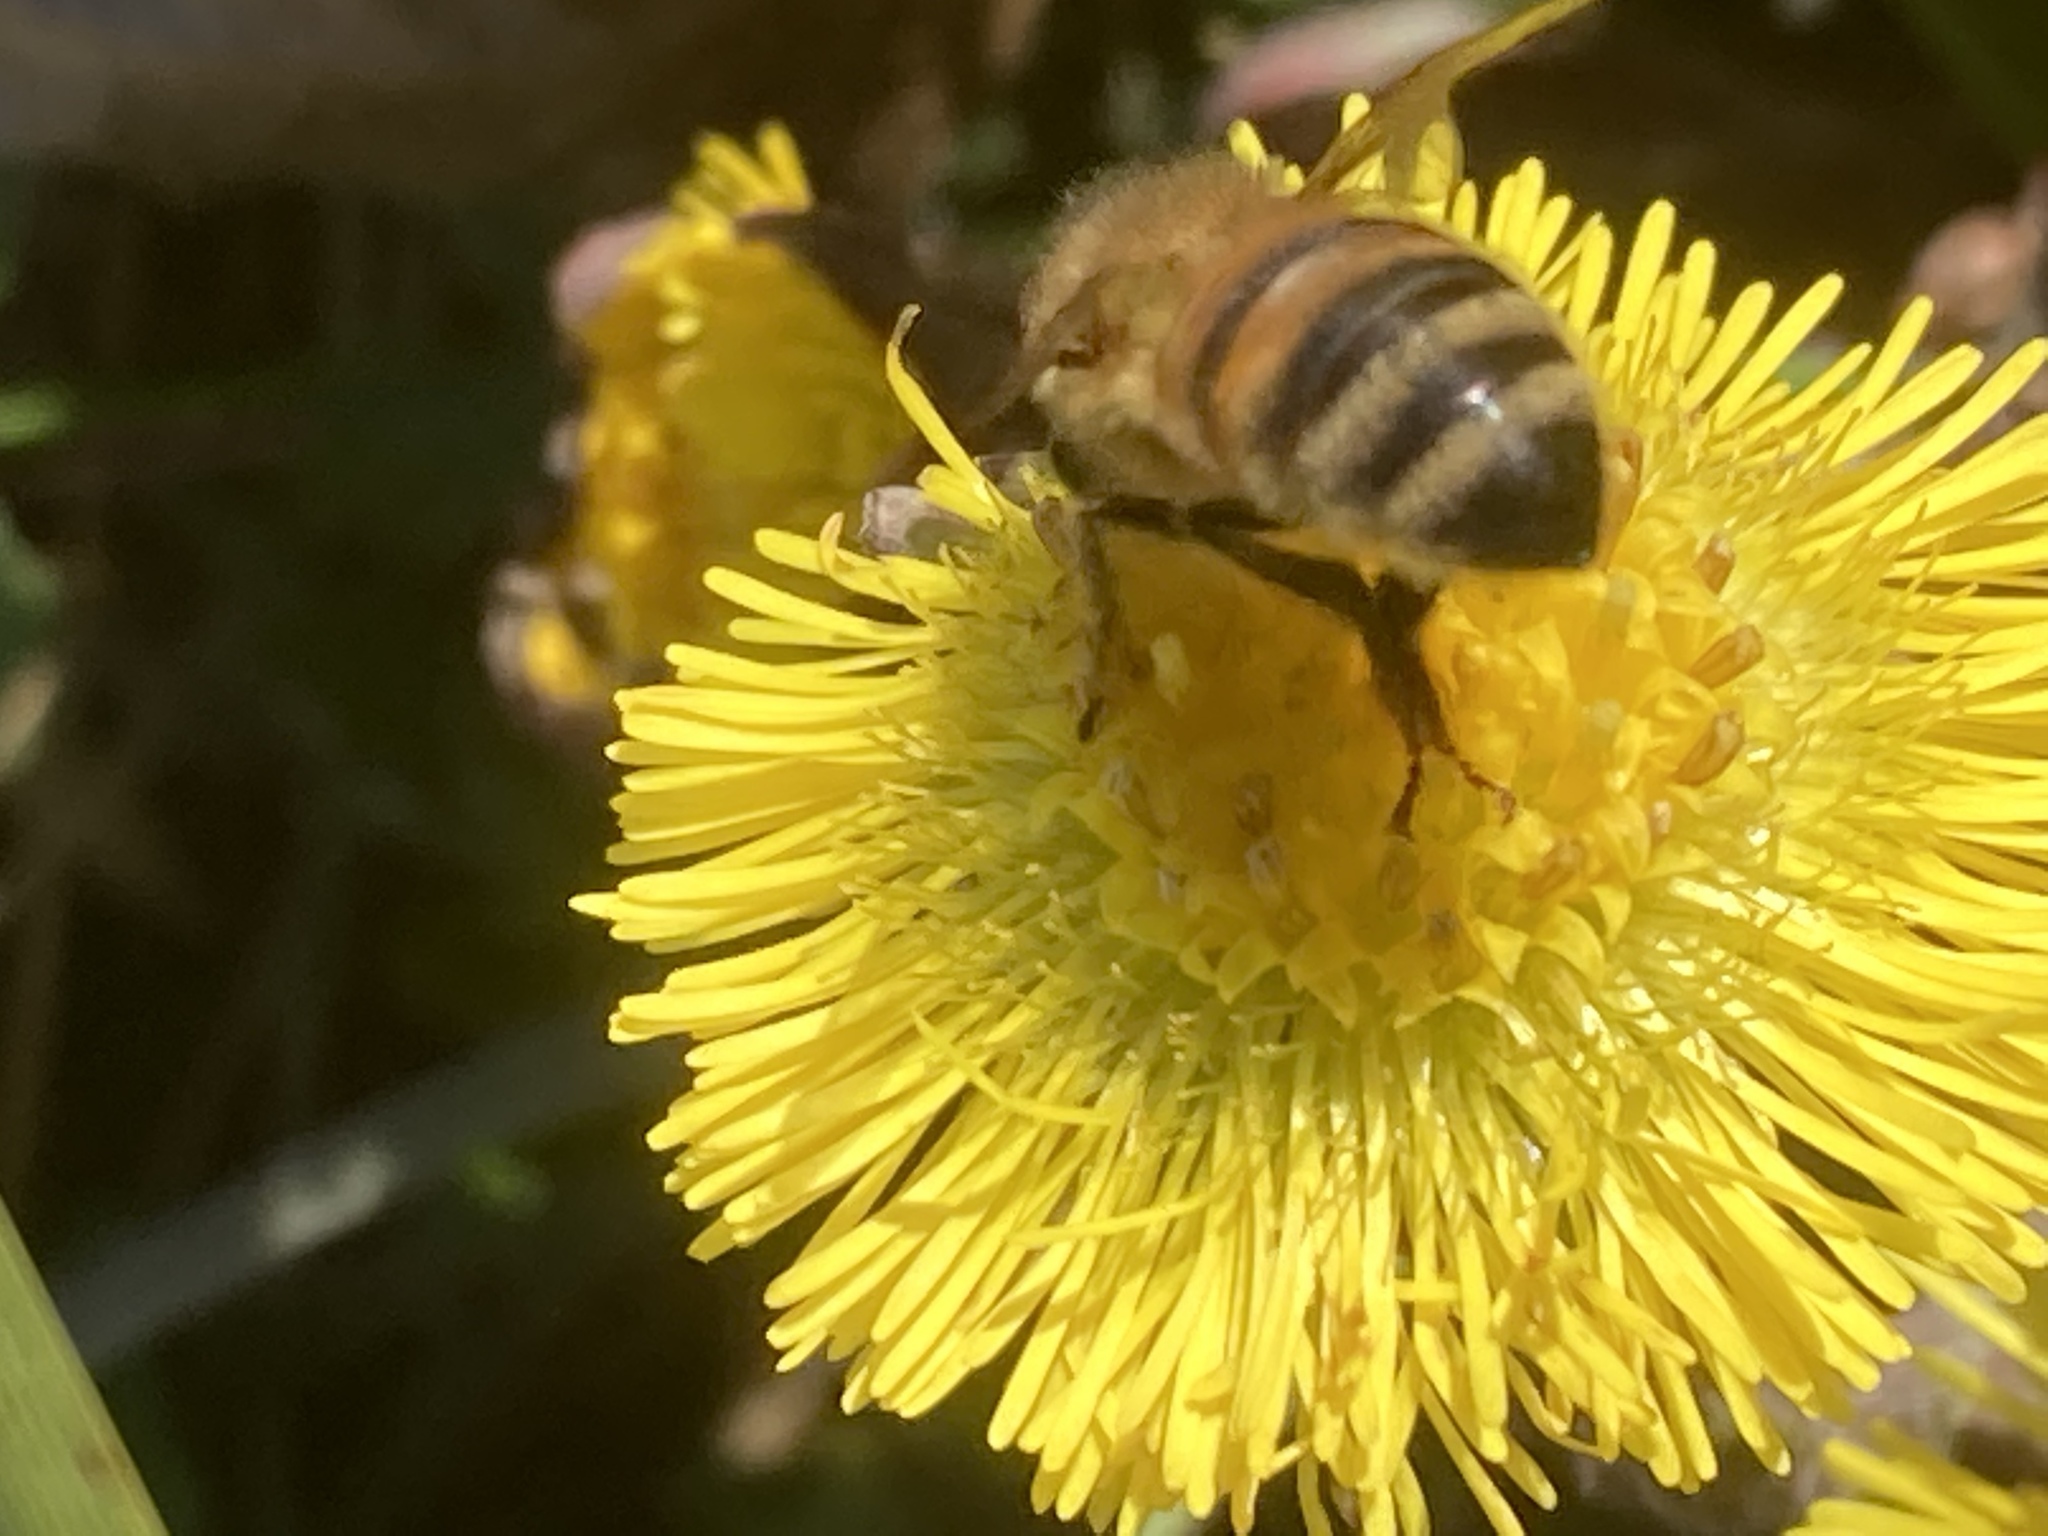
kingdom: Animalia
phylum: Arthropoda
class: Insecta
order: Hymenoptera
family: Apidae
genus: Apis
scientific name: Apis mellifera
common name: Honey bee
